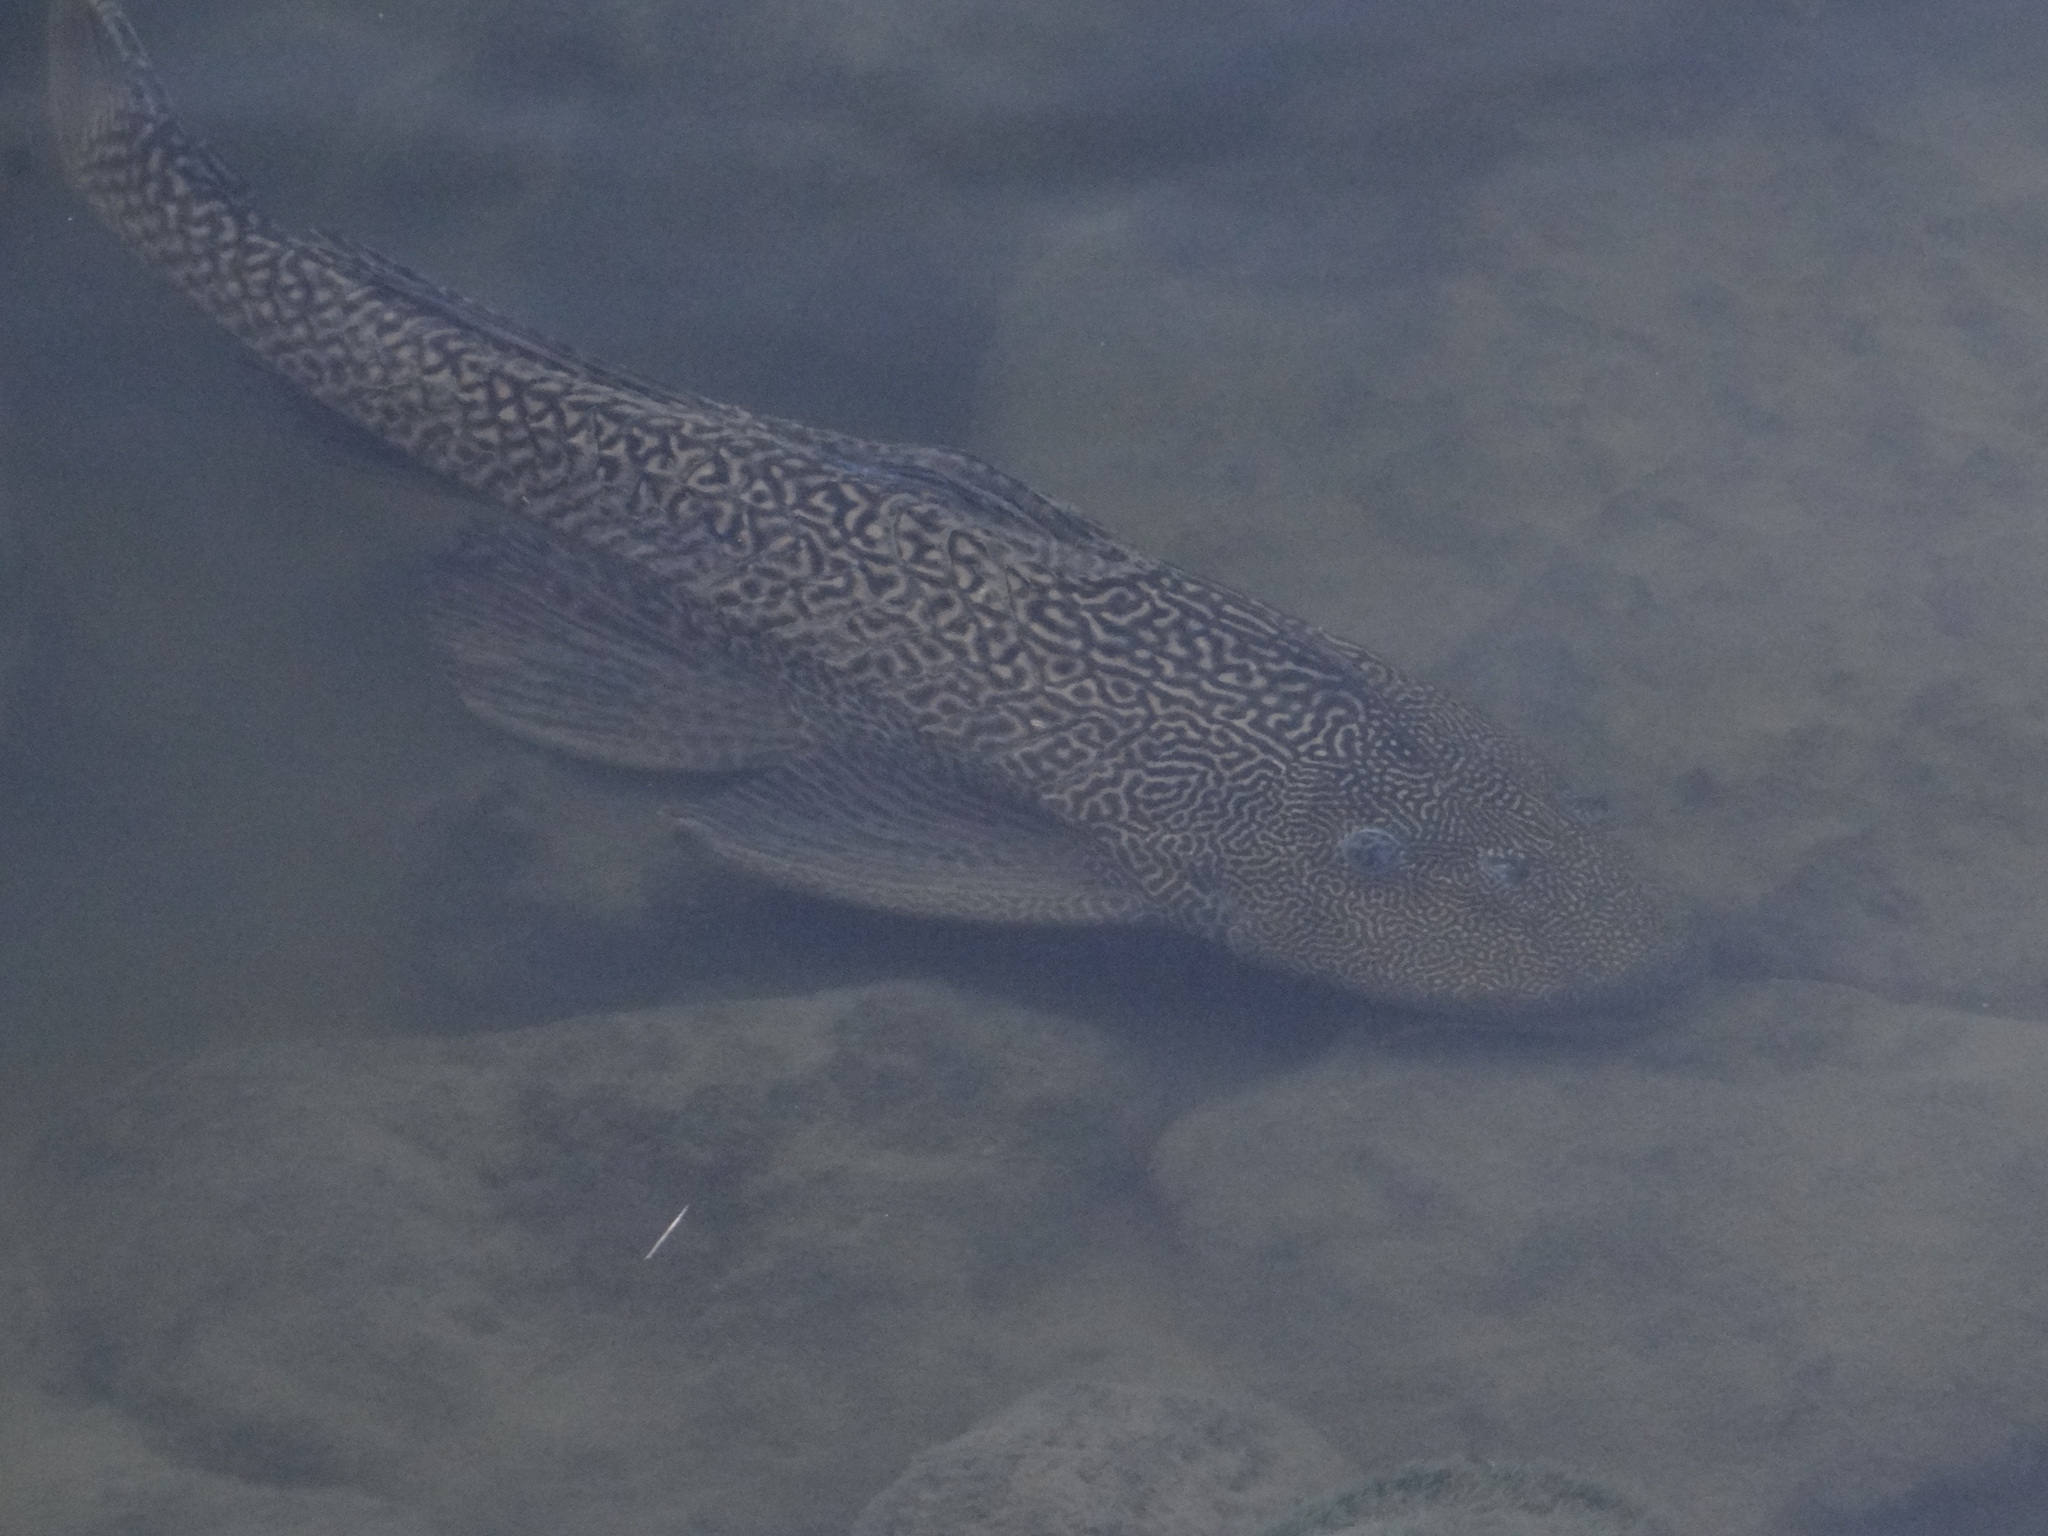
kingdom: Animalia
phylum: Chordata
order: Siluriformes
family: Loricariidae
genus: Pterygoplichthys
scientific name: Pterygoplichthys
